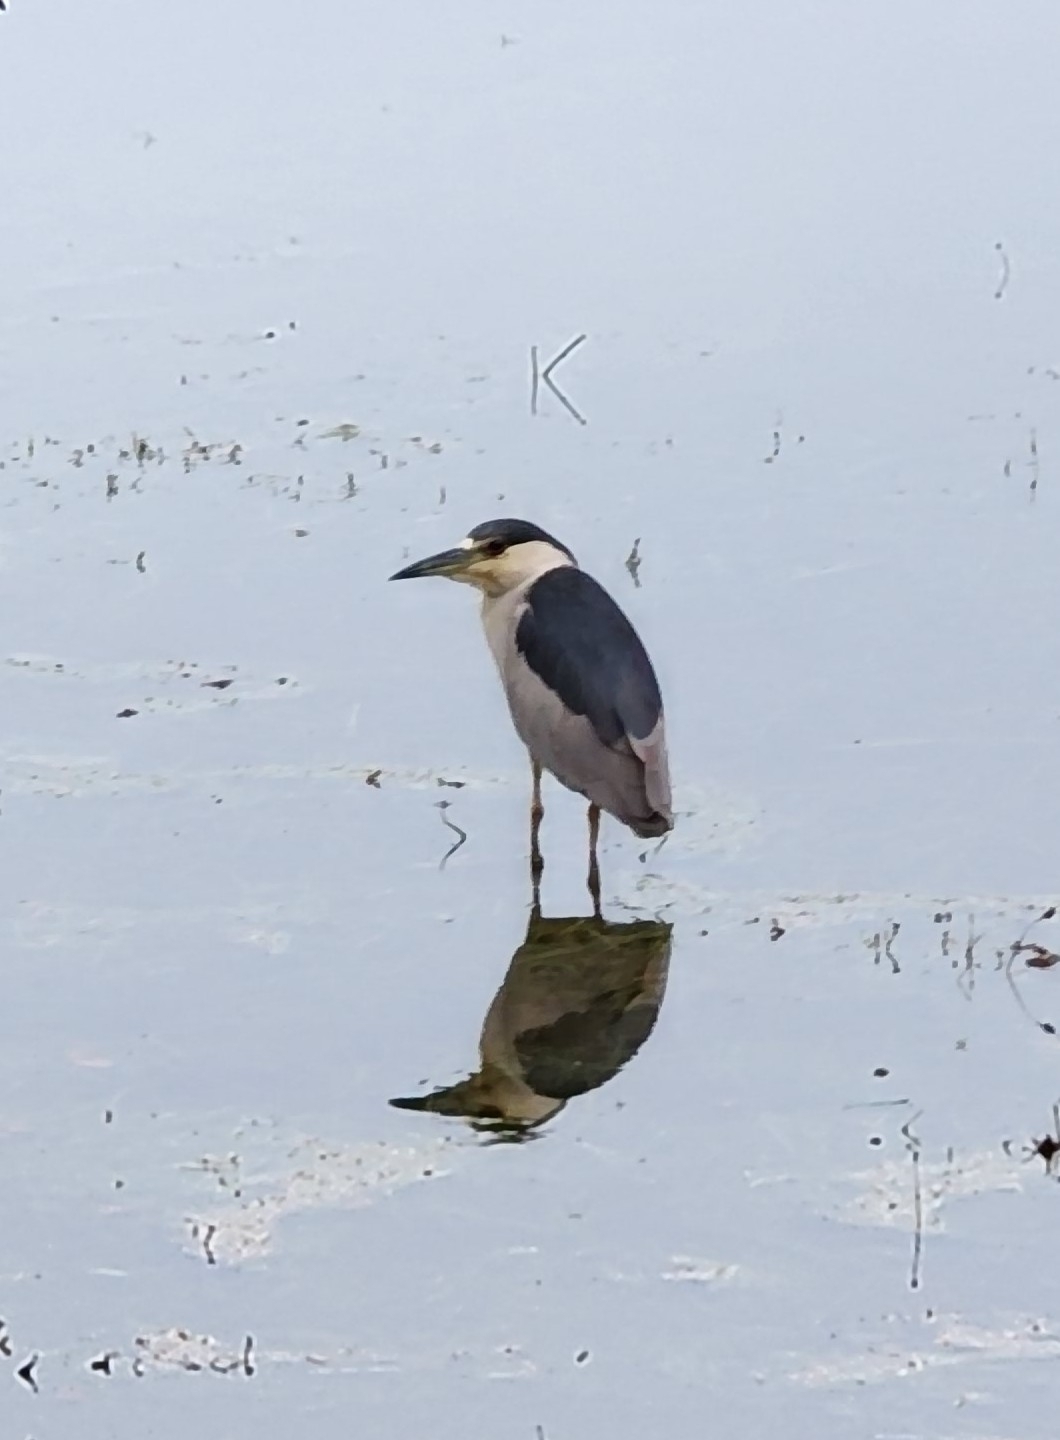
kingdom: Animalia
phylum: Chordata
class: Aves
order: Pelecaniformes
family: Ardeidae
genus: Nycticorax
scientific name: Nycticorax nycticorax
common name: Black-crowned night heron
